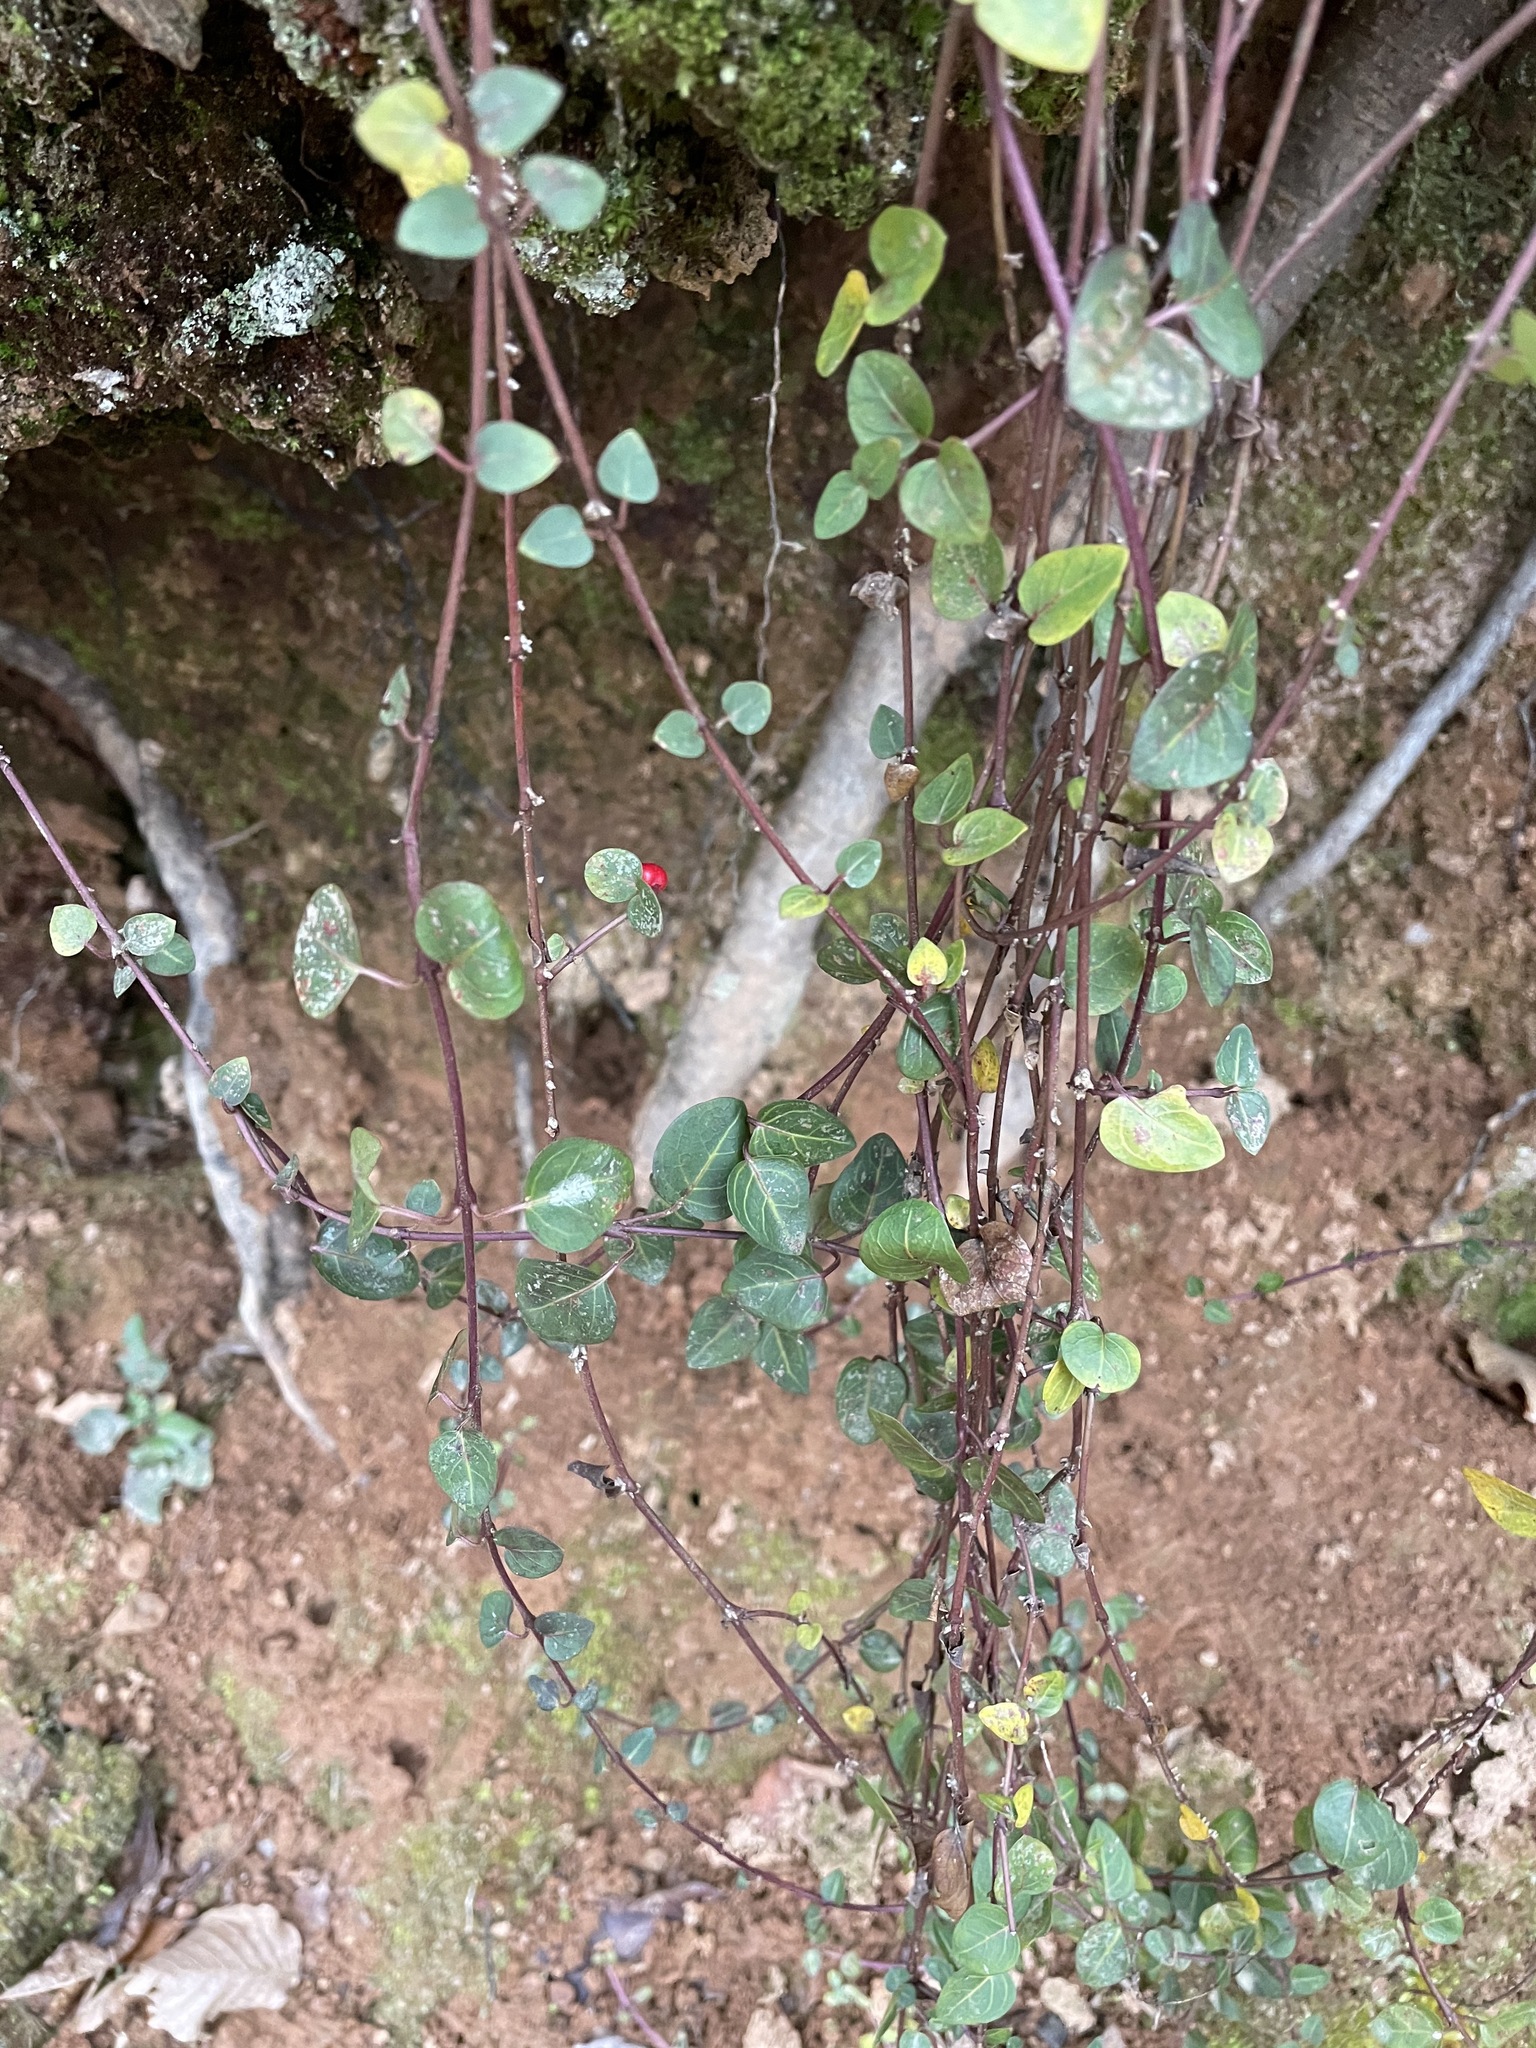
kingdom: Plantae
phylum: Tracheophyta
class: Magnoliopsida
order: Gentianales
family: Rubiaceae
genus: Mitchella
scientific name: Mitchella repens
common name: Partridge-berry
